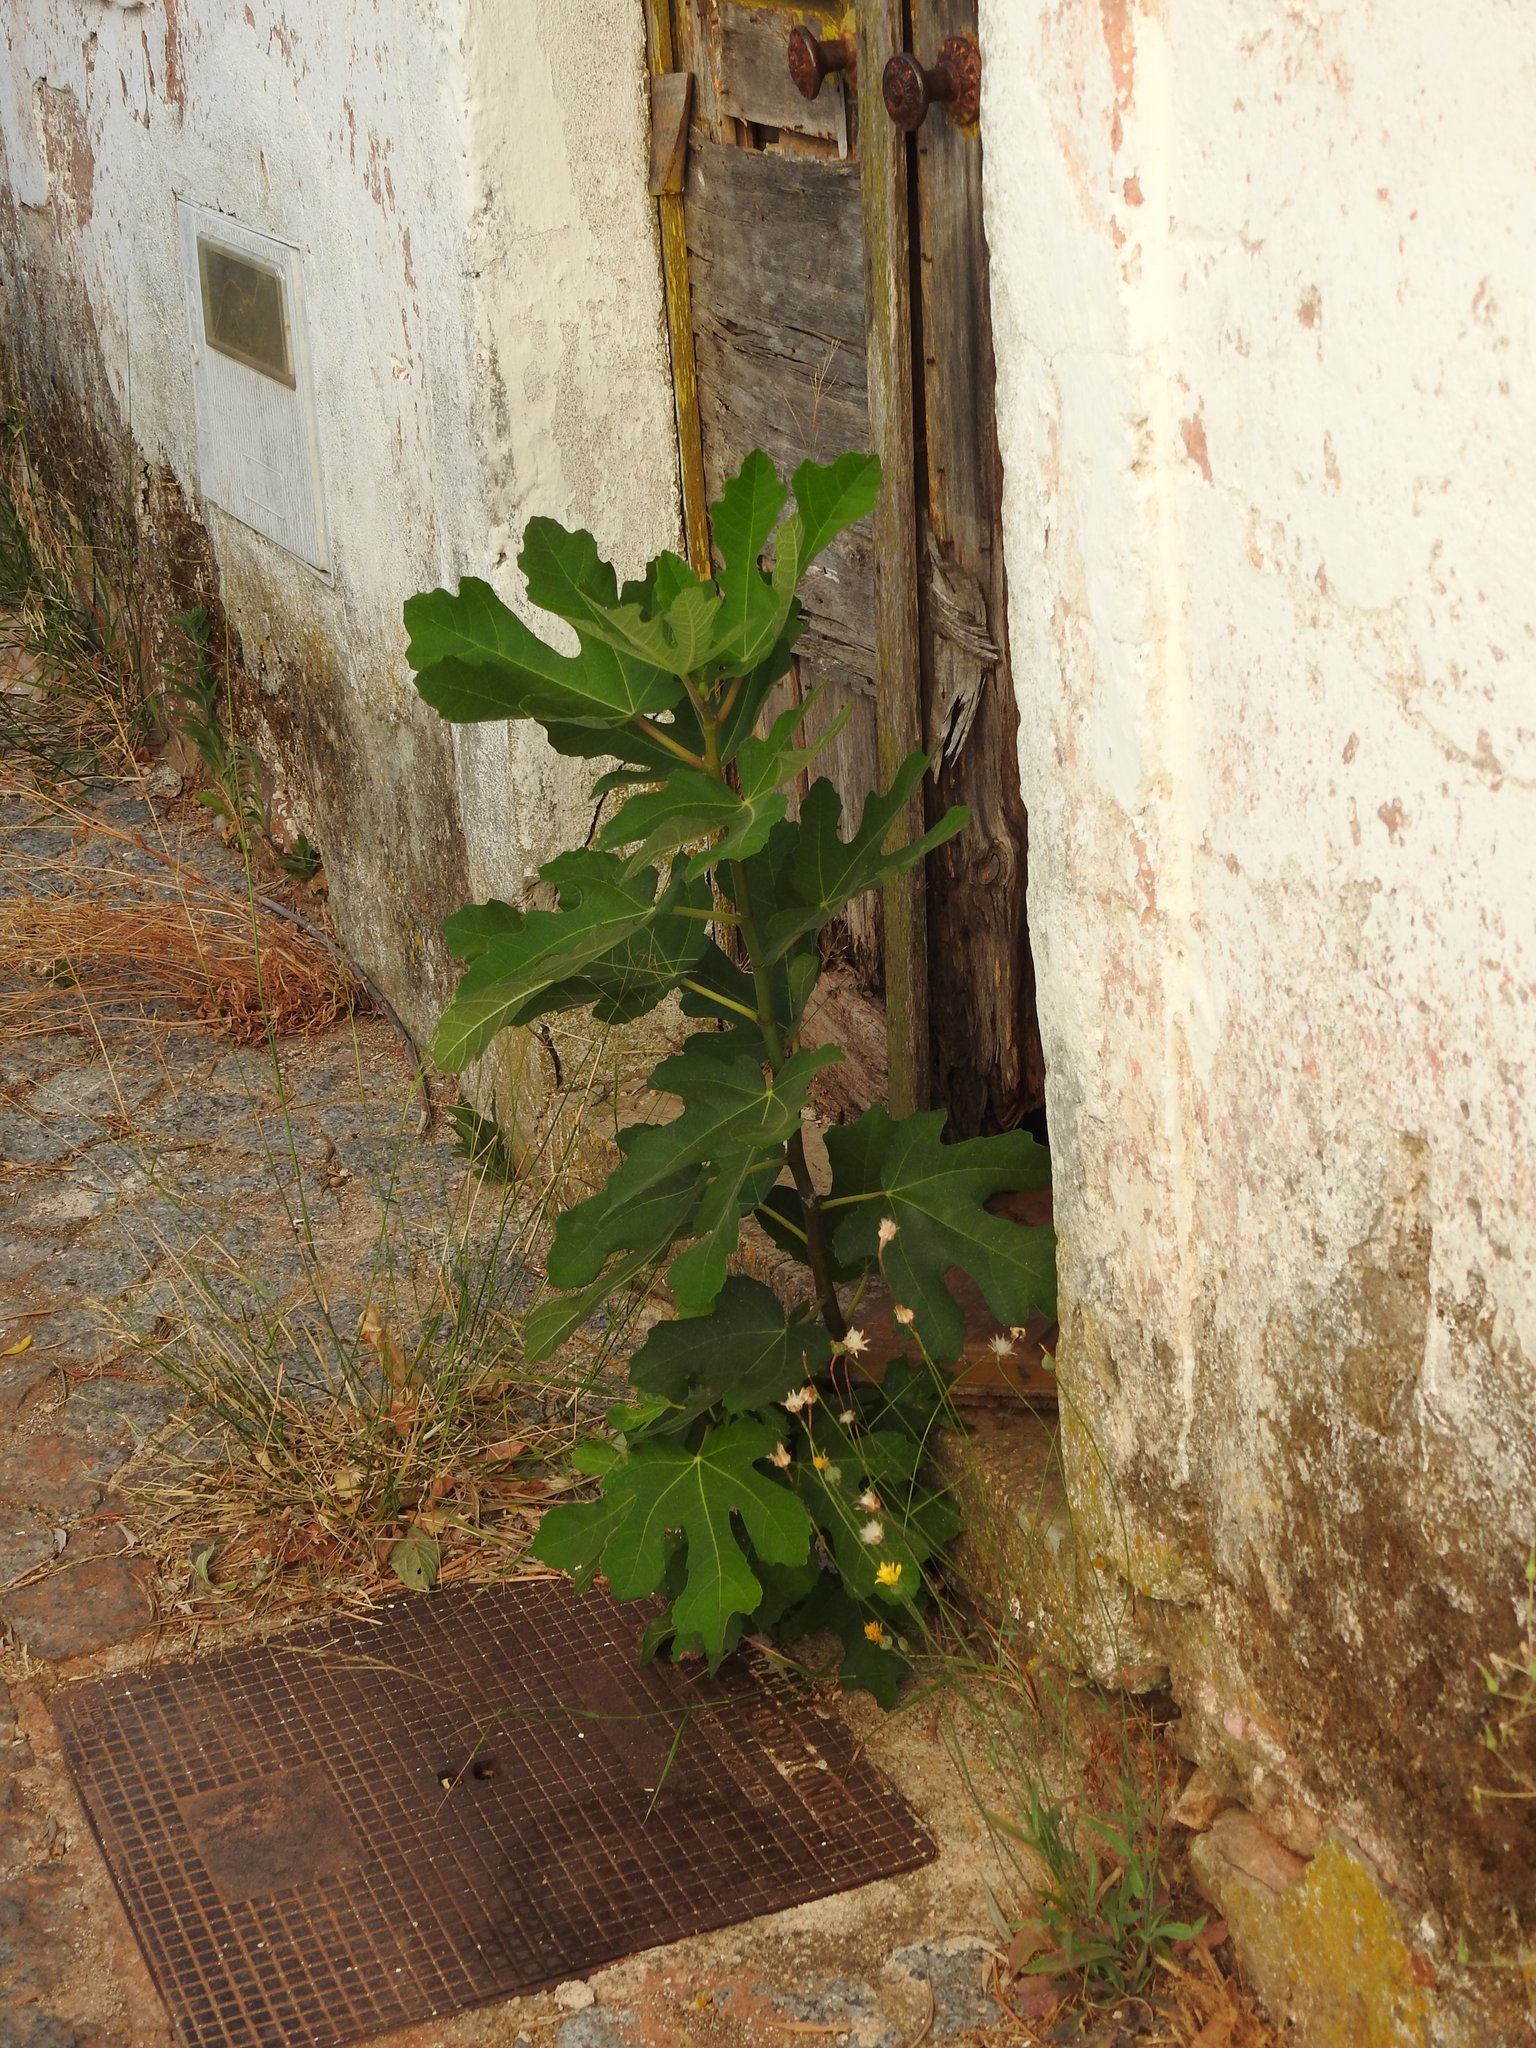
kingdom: Plantae
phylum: Tracheophyta
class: Magnoliopsida
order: Rosales
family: Moraceae
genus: Ficus
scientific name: Ficus carica
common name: Fig
